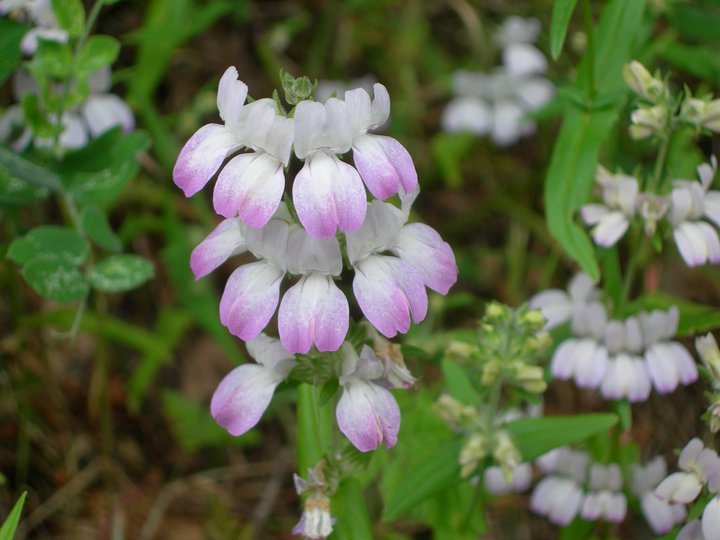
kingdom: Plantae
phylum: Tracheophyta
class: Magnoliopsida
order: Lamiales
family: Plantaginaceae
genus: Collinsia
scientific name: Collinsia heterophylla
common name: Chinese-houses
